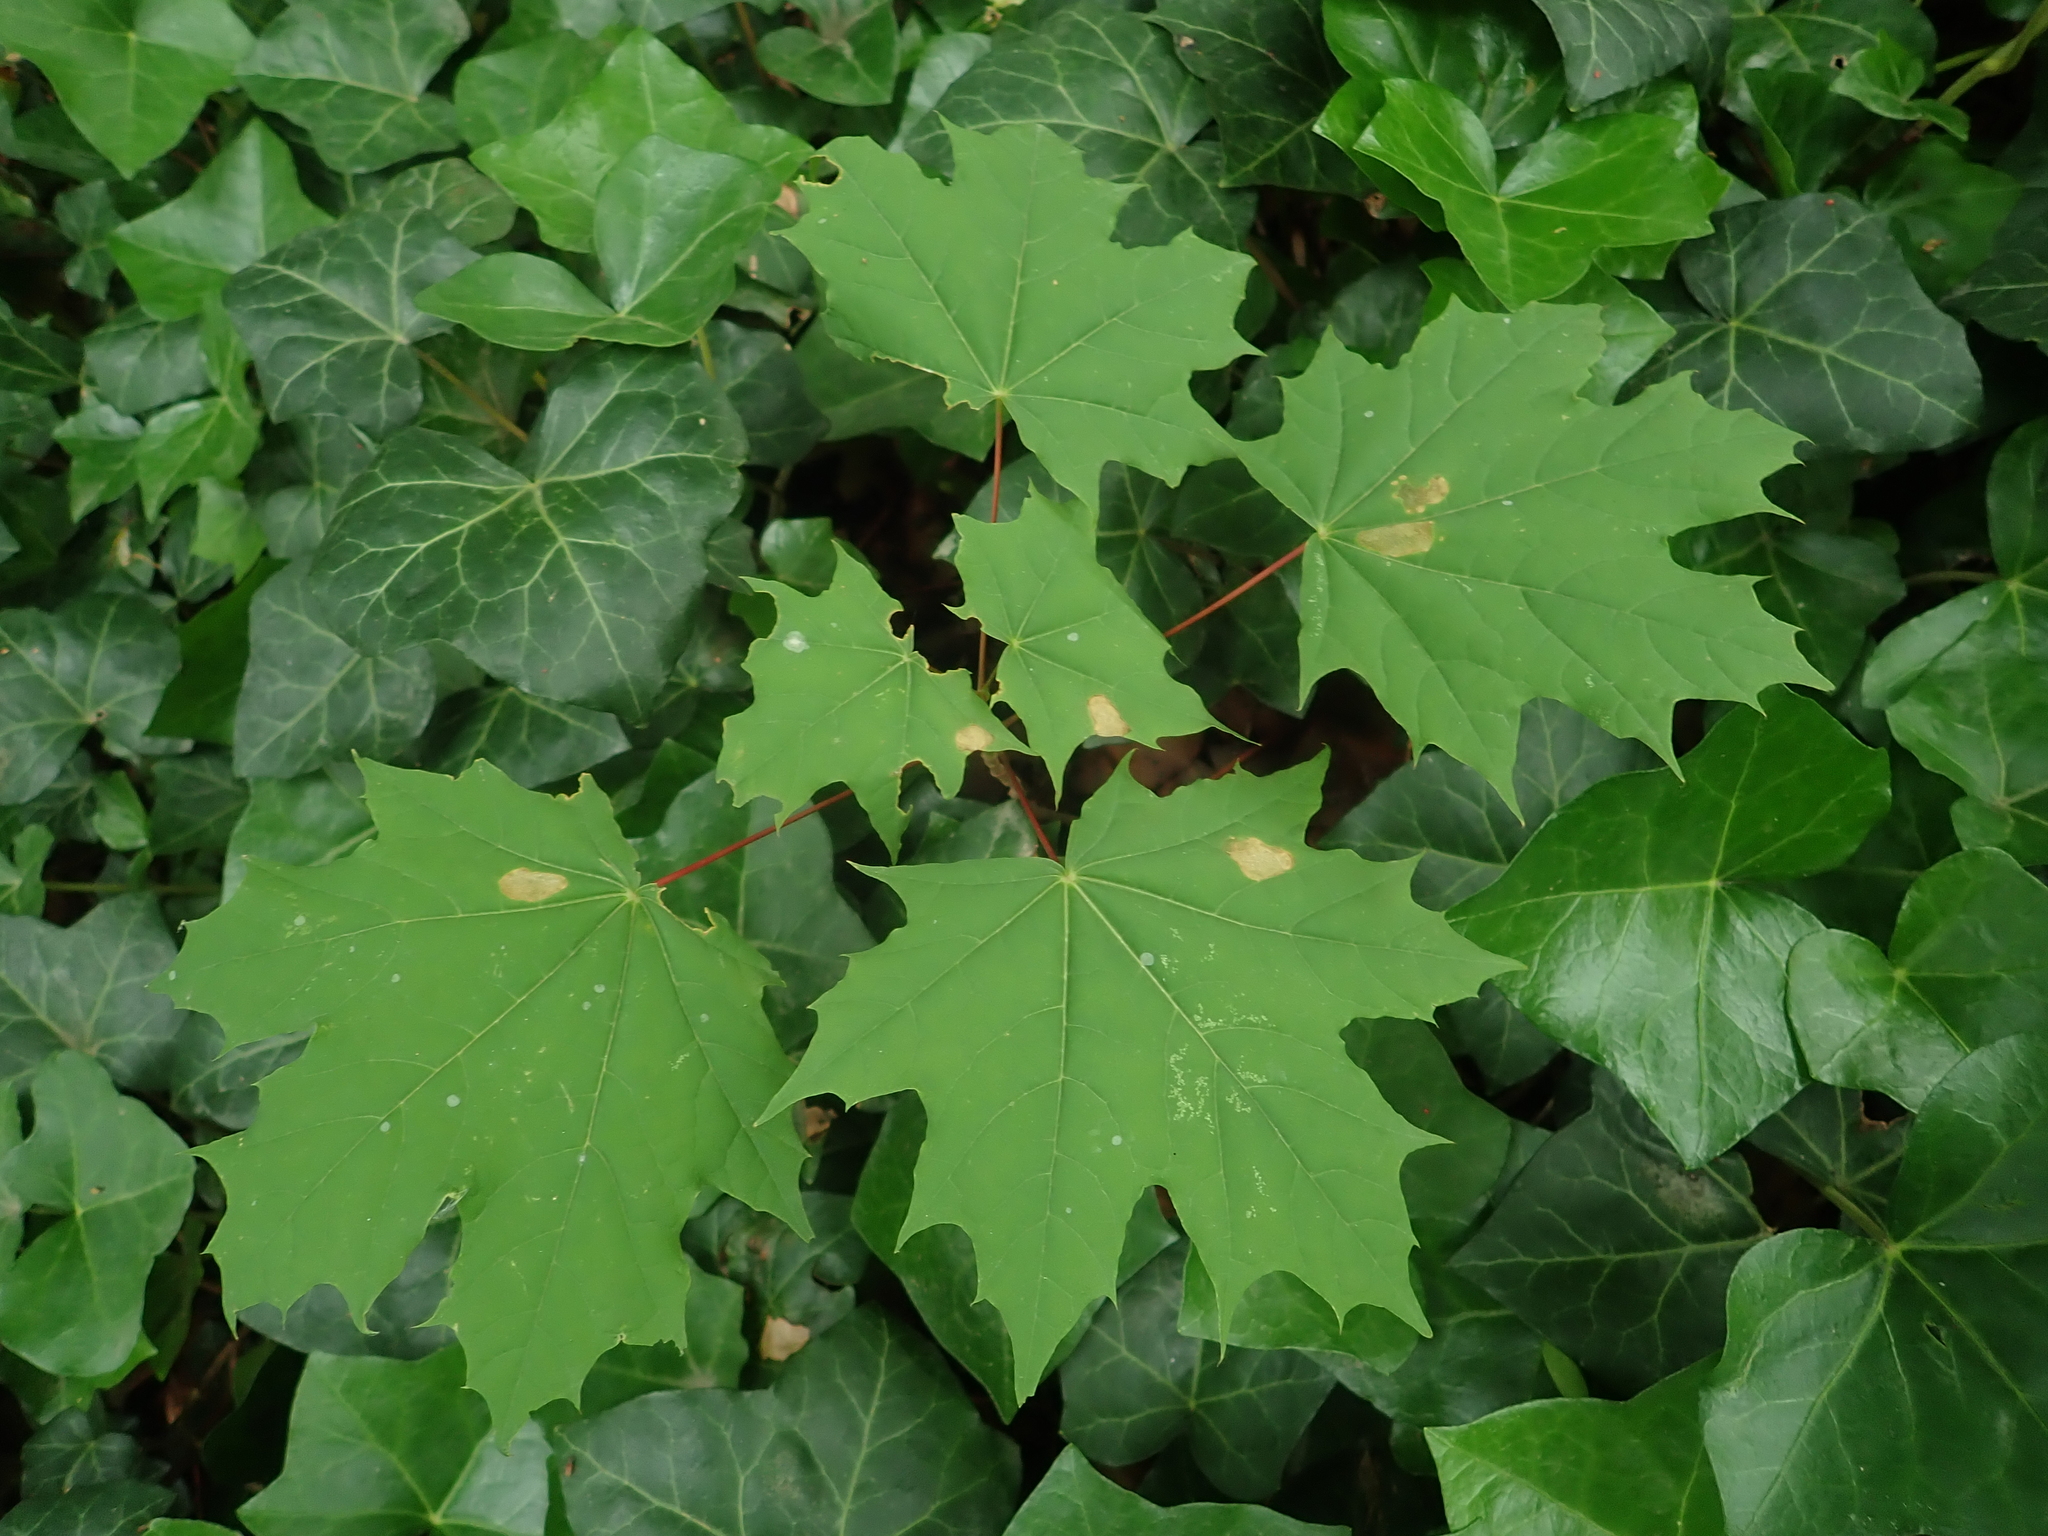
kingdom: Plantae
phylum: Tracheophyta
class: Magnoliopsida
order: Sapindales
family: Sapindaceae
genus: Acer
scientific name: Acer platanoides
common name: Norway maple
